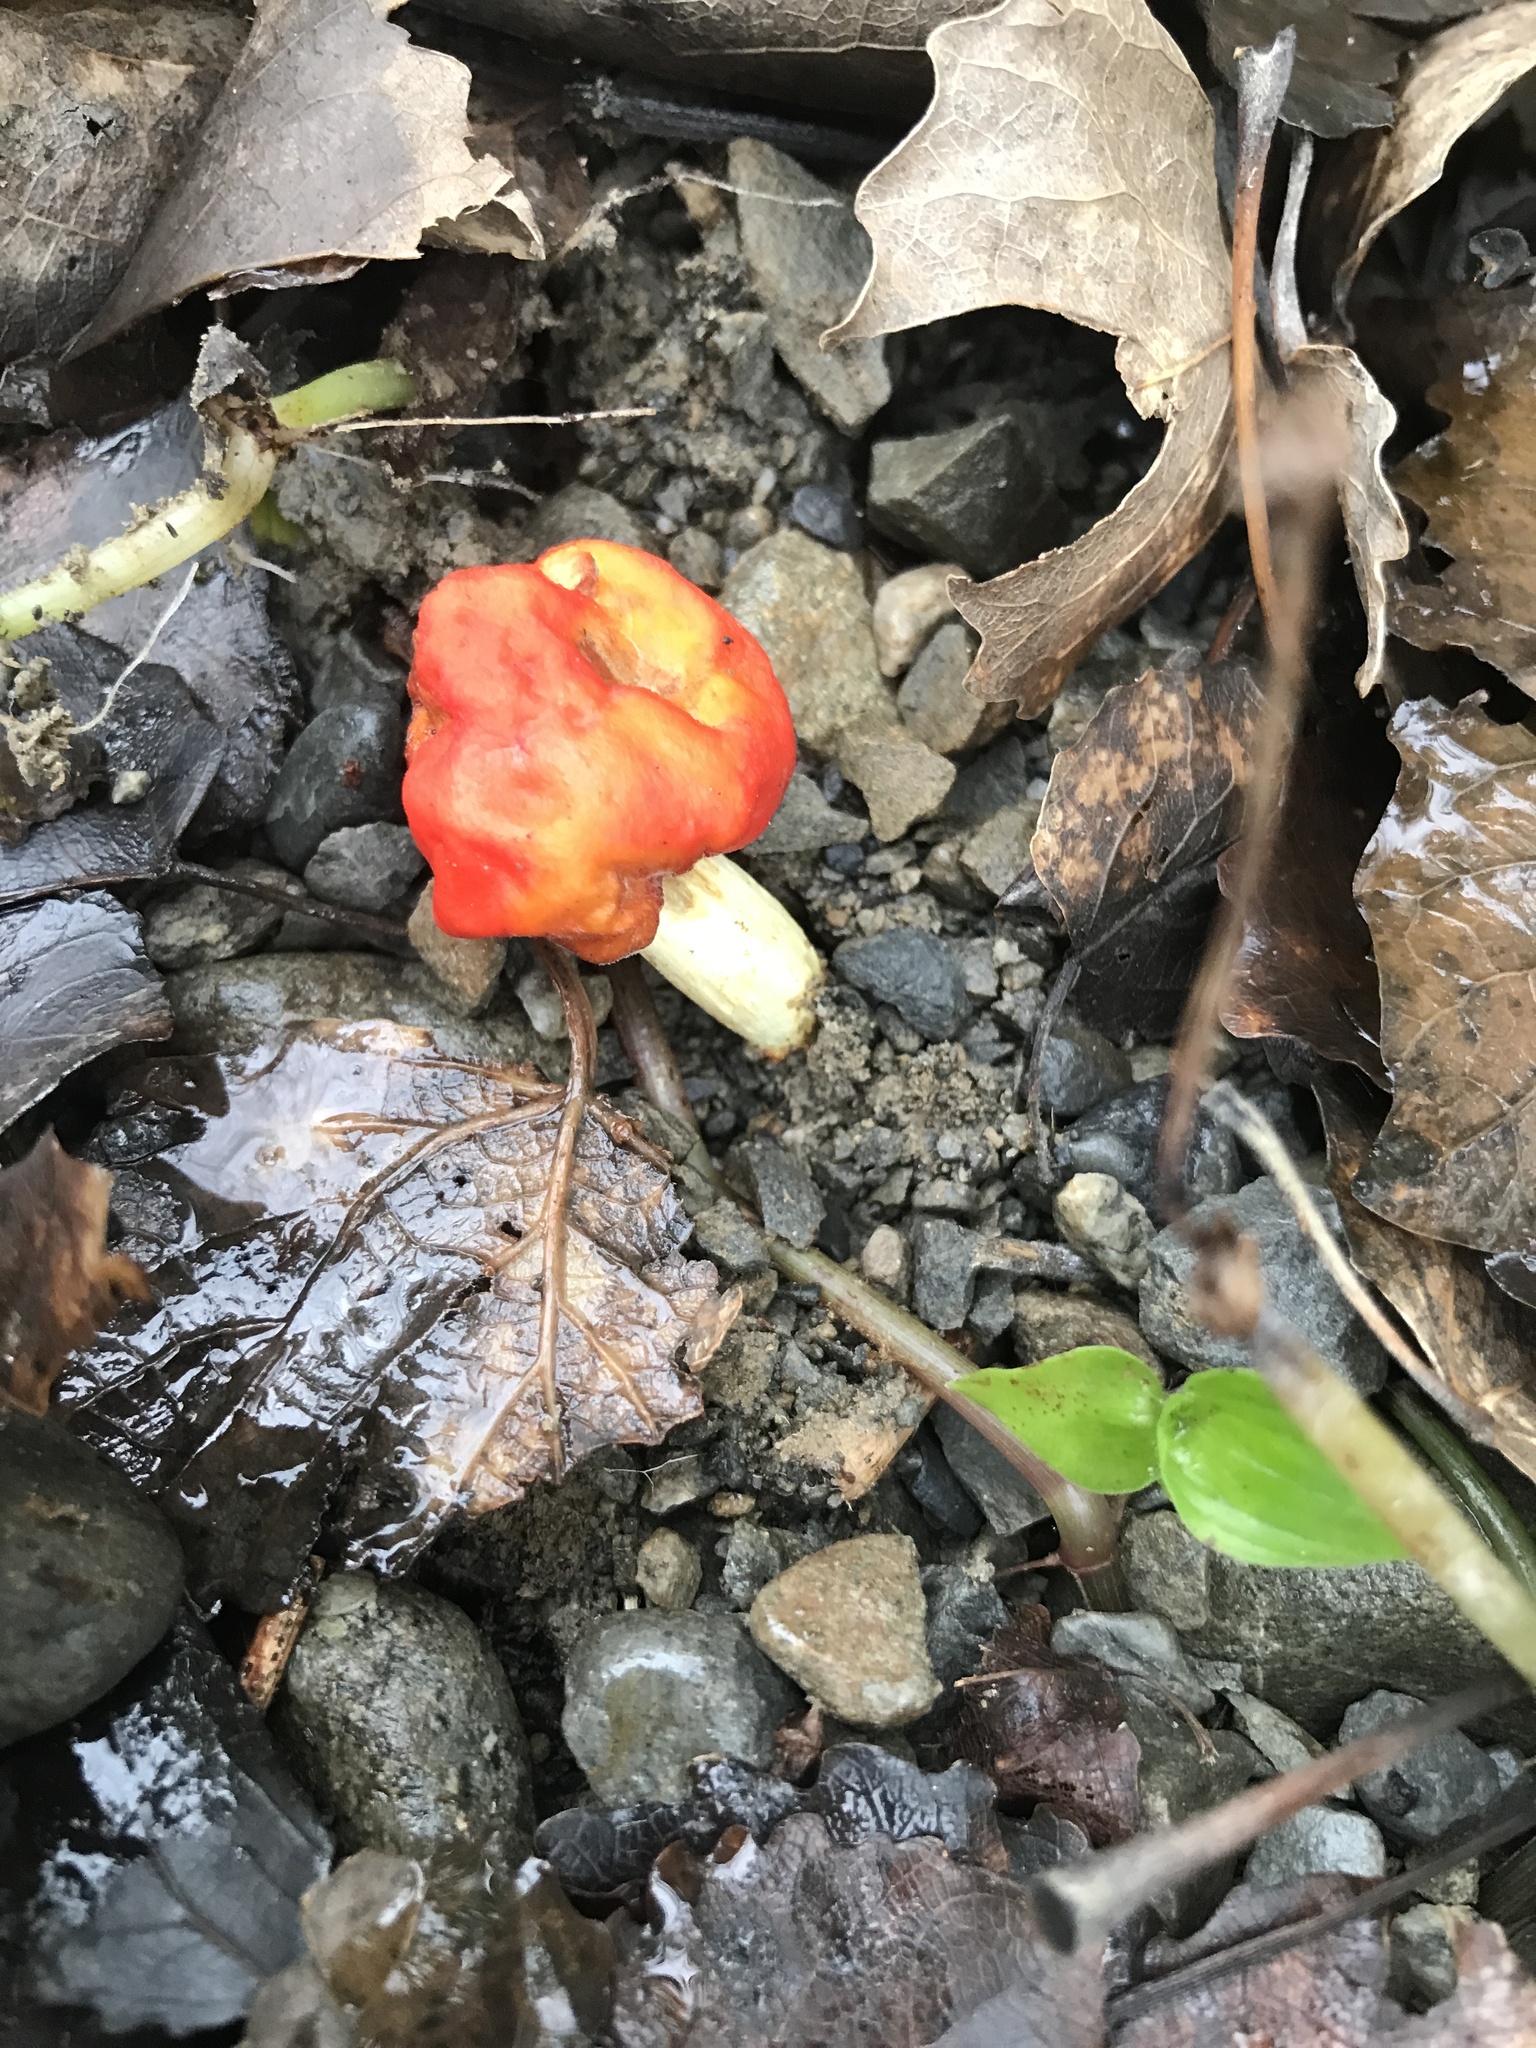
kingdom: Fungi
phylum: Basidiomycota
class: Agaricomycetes
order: Agaricales
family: Strophariaceae
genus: Leratiomyces
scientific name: Leratiomyces erythrocephalus
